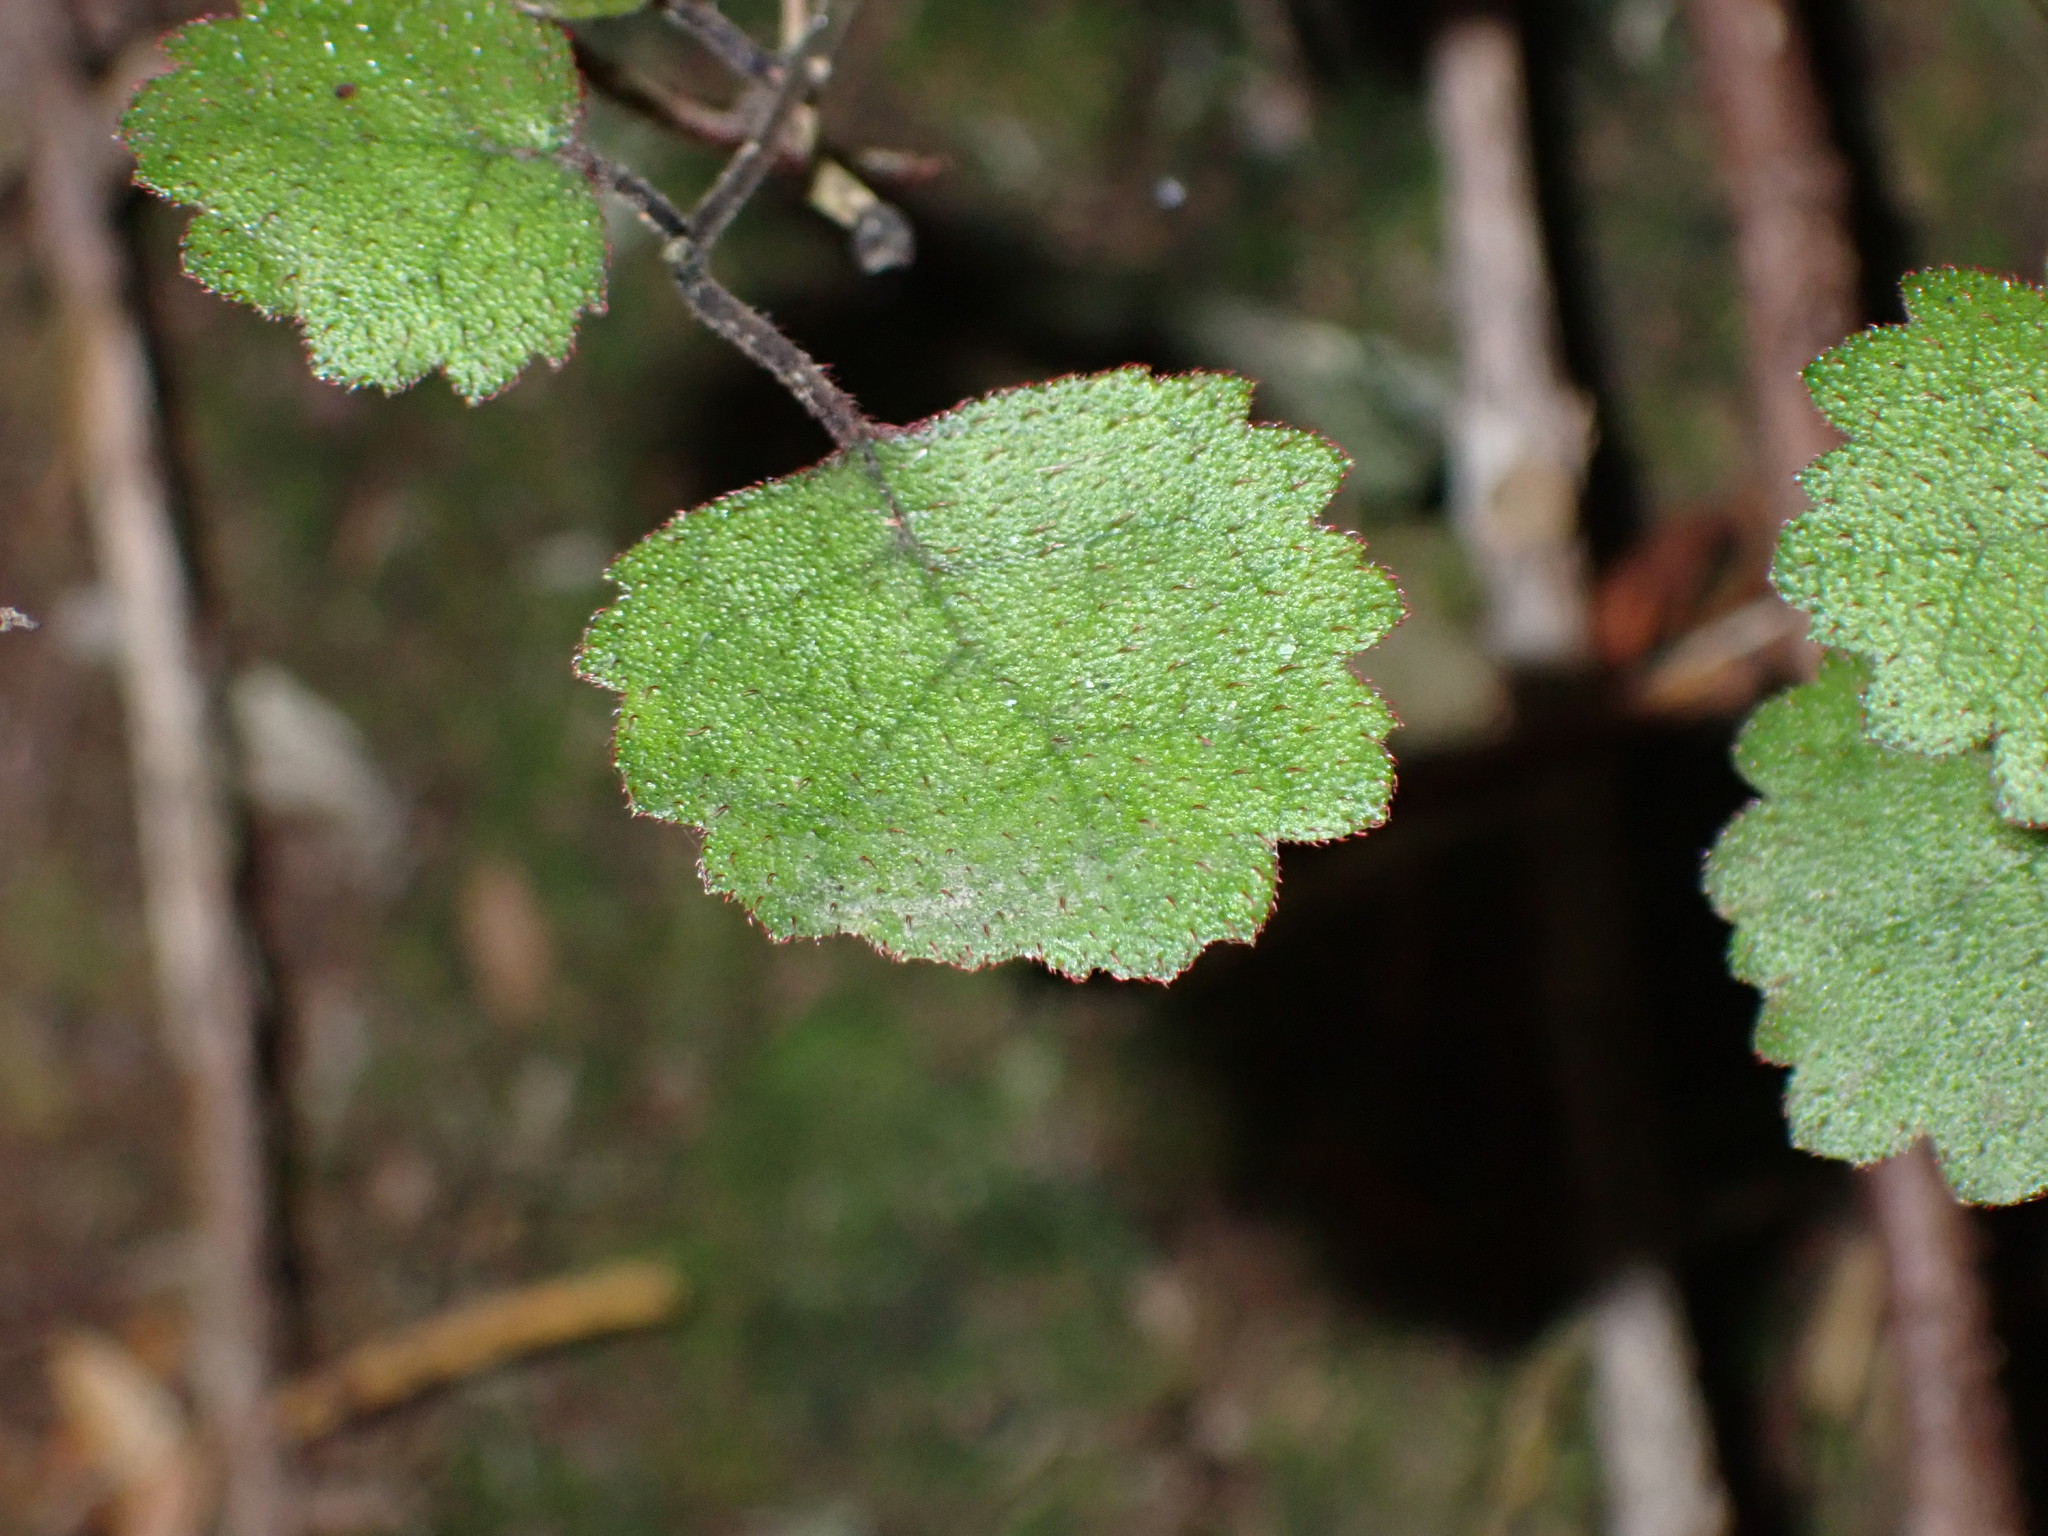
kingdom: Plantae
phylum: Tracheophyta
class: Magnoliopsida
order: Lamiales
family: Gesneriaceae
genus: Rhabdothamnus
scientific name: Rhabdothamnus solandri
